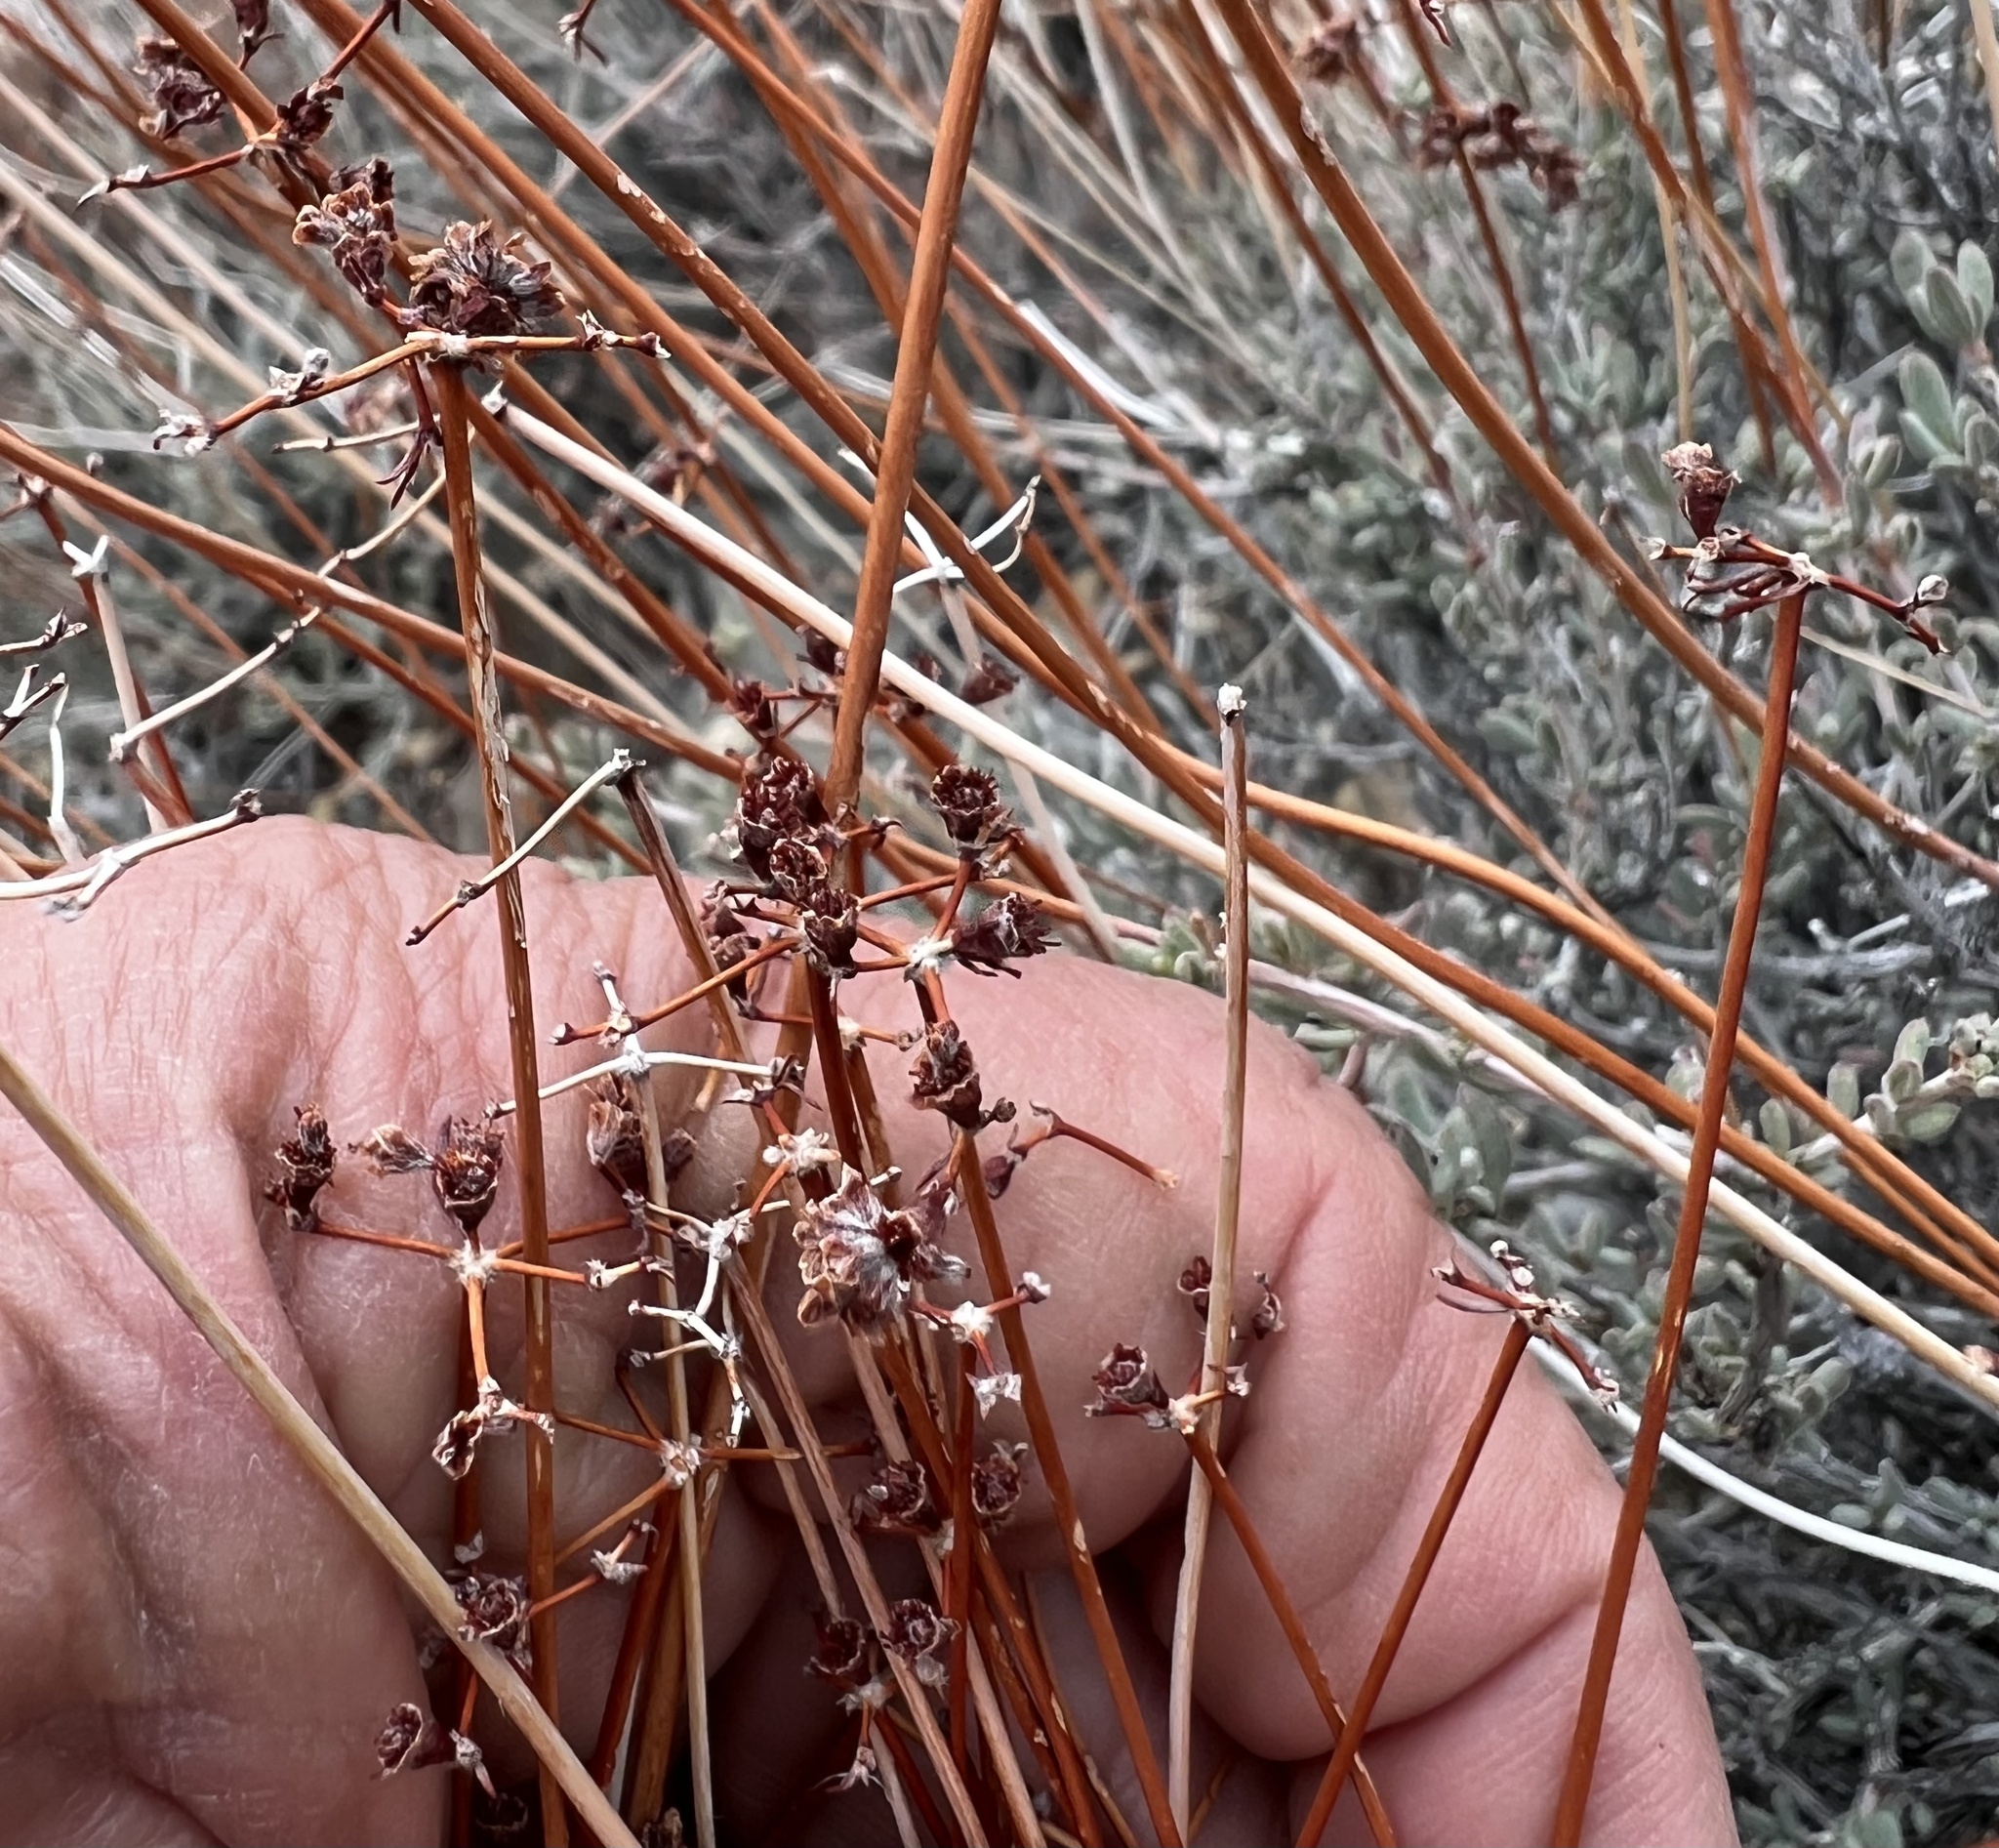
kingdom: Plantae
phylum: Tracheophyta
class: Magnoliopsida
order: Caryophyllales
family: Polygonaceae
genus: Eriogonum
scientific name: Eriogonum fasciculatum
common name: California wild buckwheat
